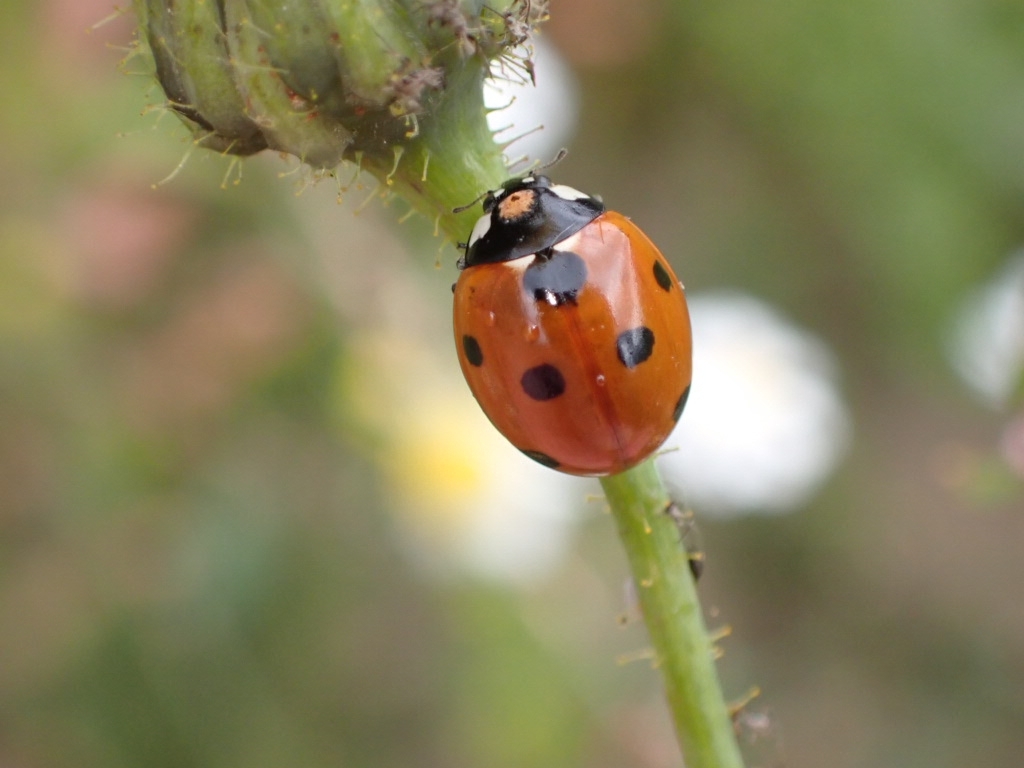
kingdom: Animalia
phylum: Arthropoda
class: Insecta
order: Coleoptera
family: Coccinellidae
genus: Coccinella
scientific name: Coccinella septempunctata
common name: Sevenspotted lady beetle
